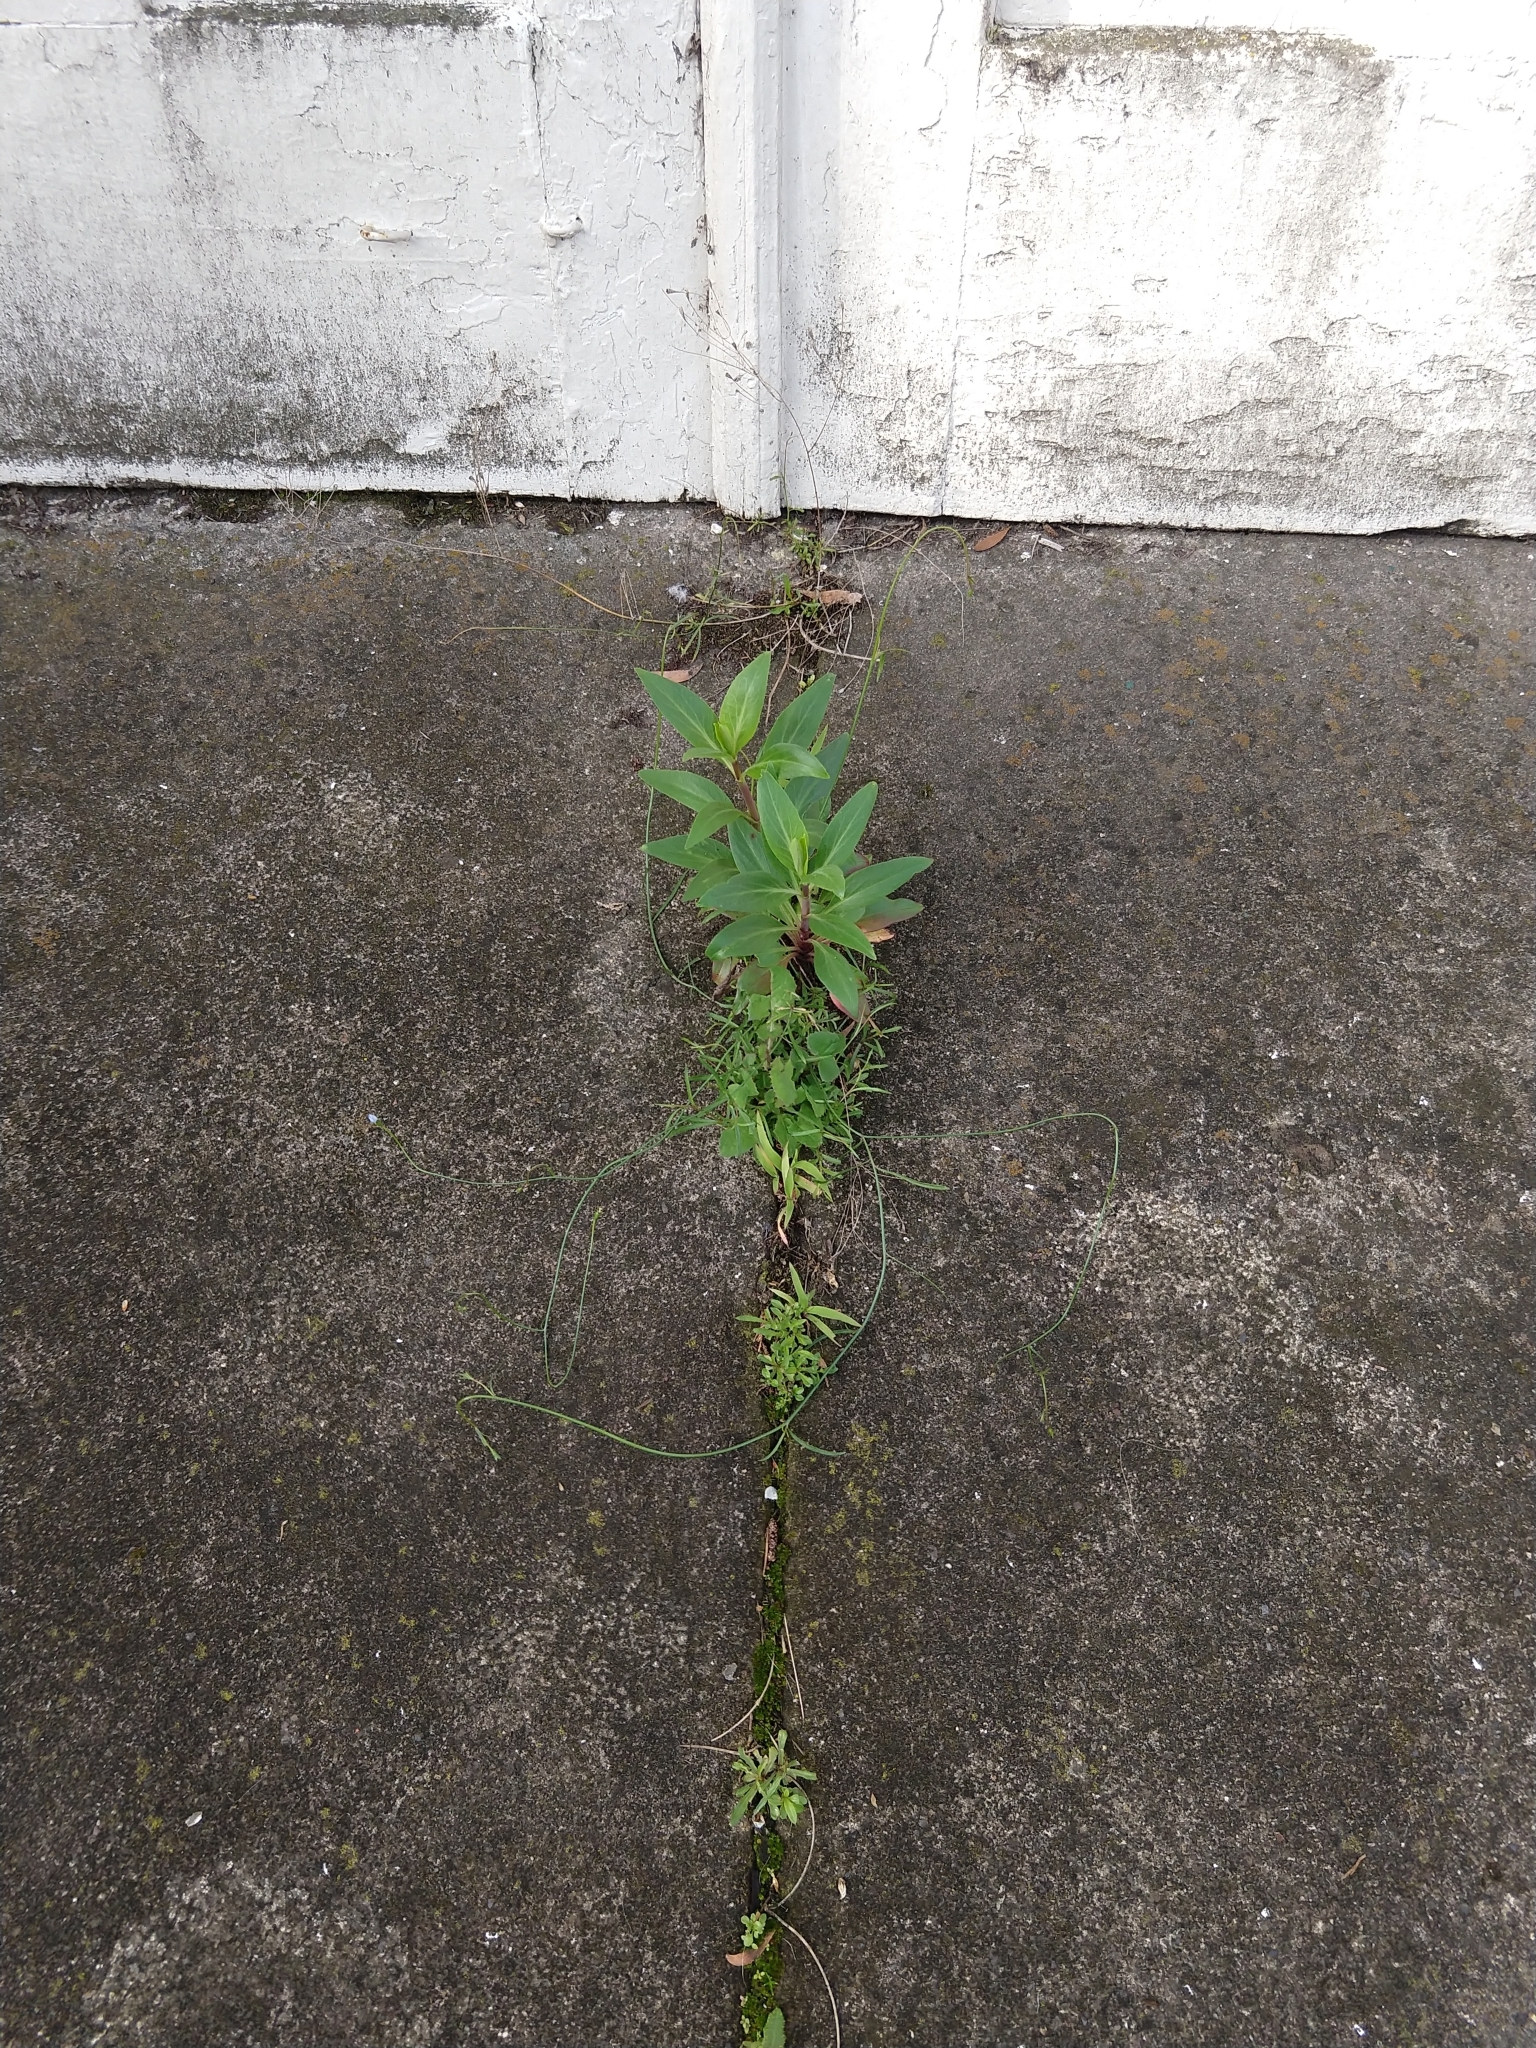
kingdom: Plantae
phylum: Tracheophyta
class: Magnoliopsida
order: Asterales
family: Campanulaceae
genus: Wahlenbergia
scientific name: Wahlenbergia marginata
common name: Southern rockbell
